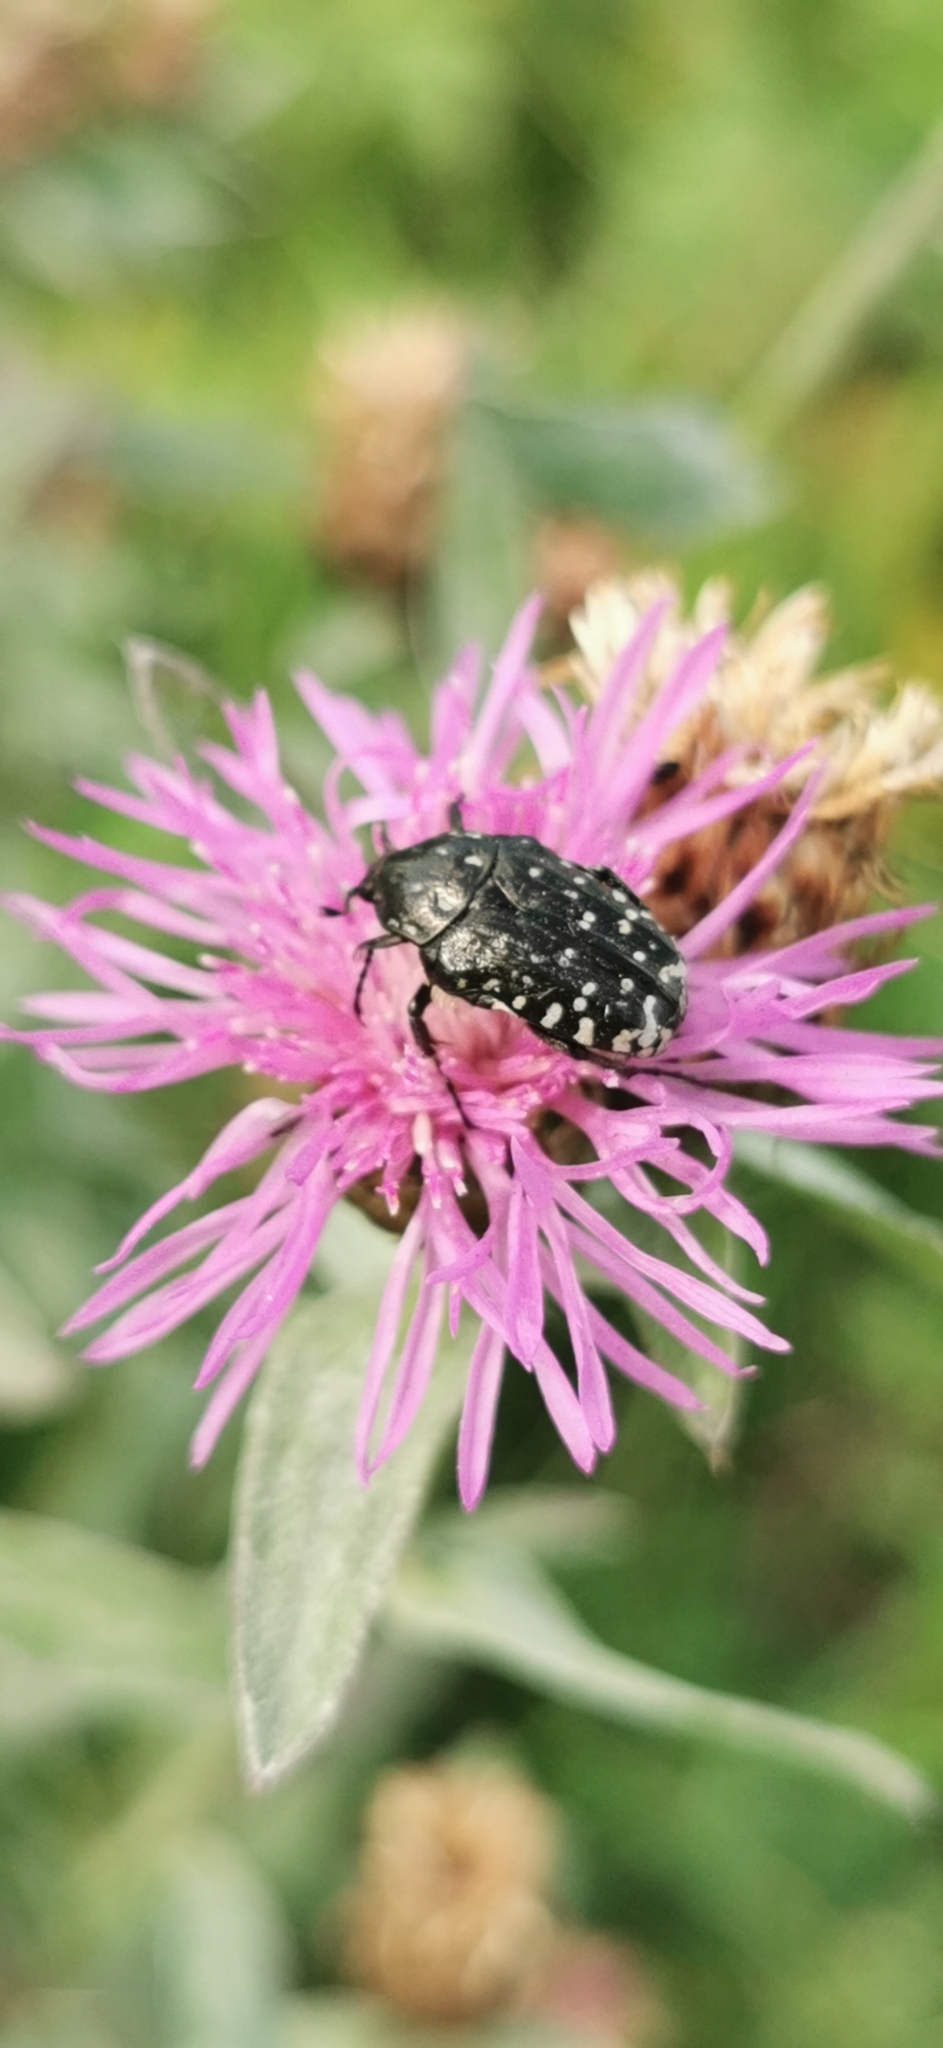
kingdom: Animalia
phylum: Arthropoda
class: Insecta
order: Coleoptera
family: Scarabaeidae
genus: Oxythyrea
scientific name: Oxythyrea funesta
